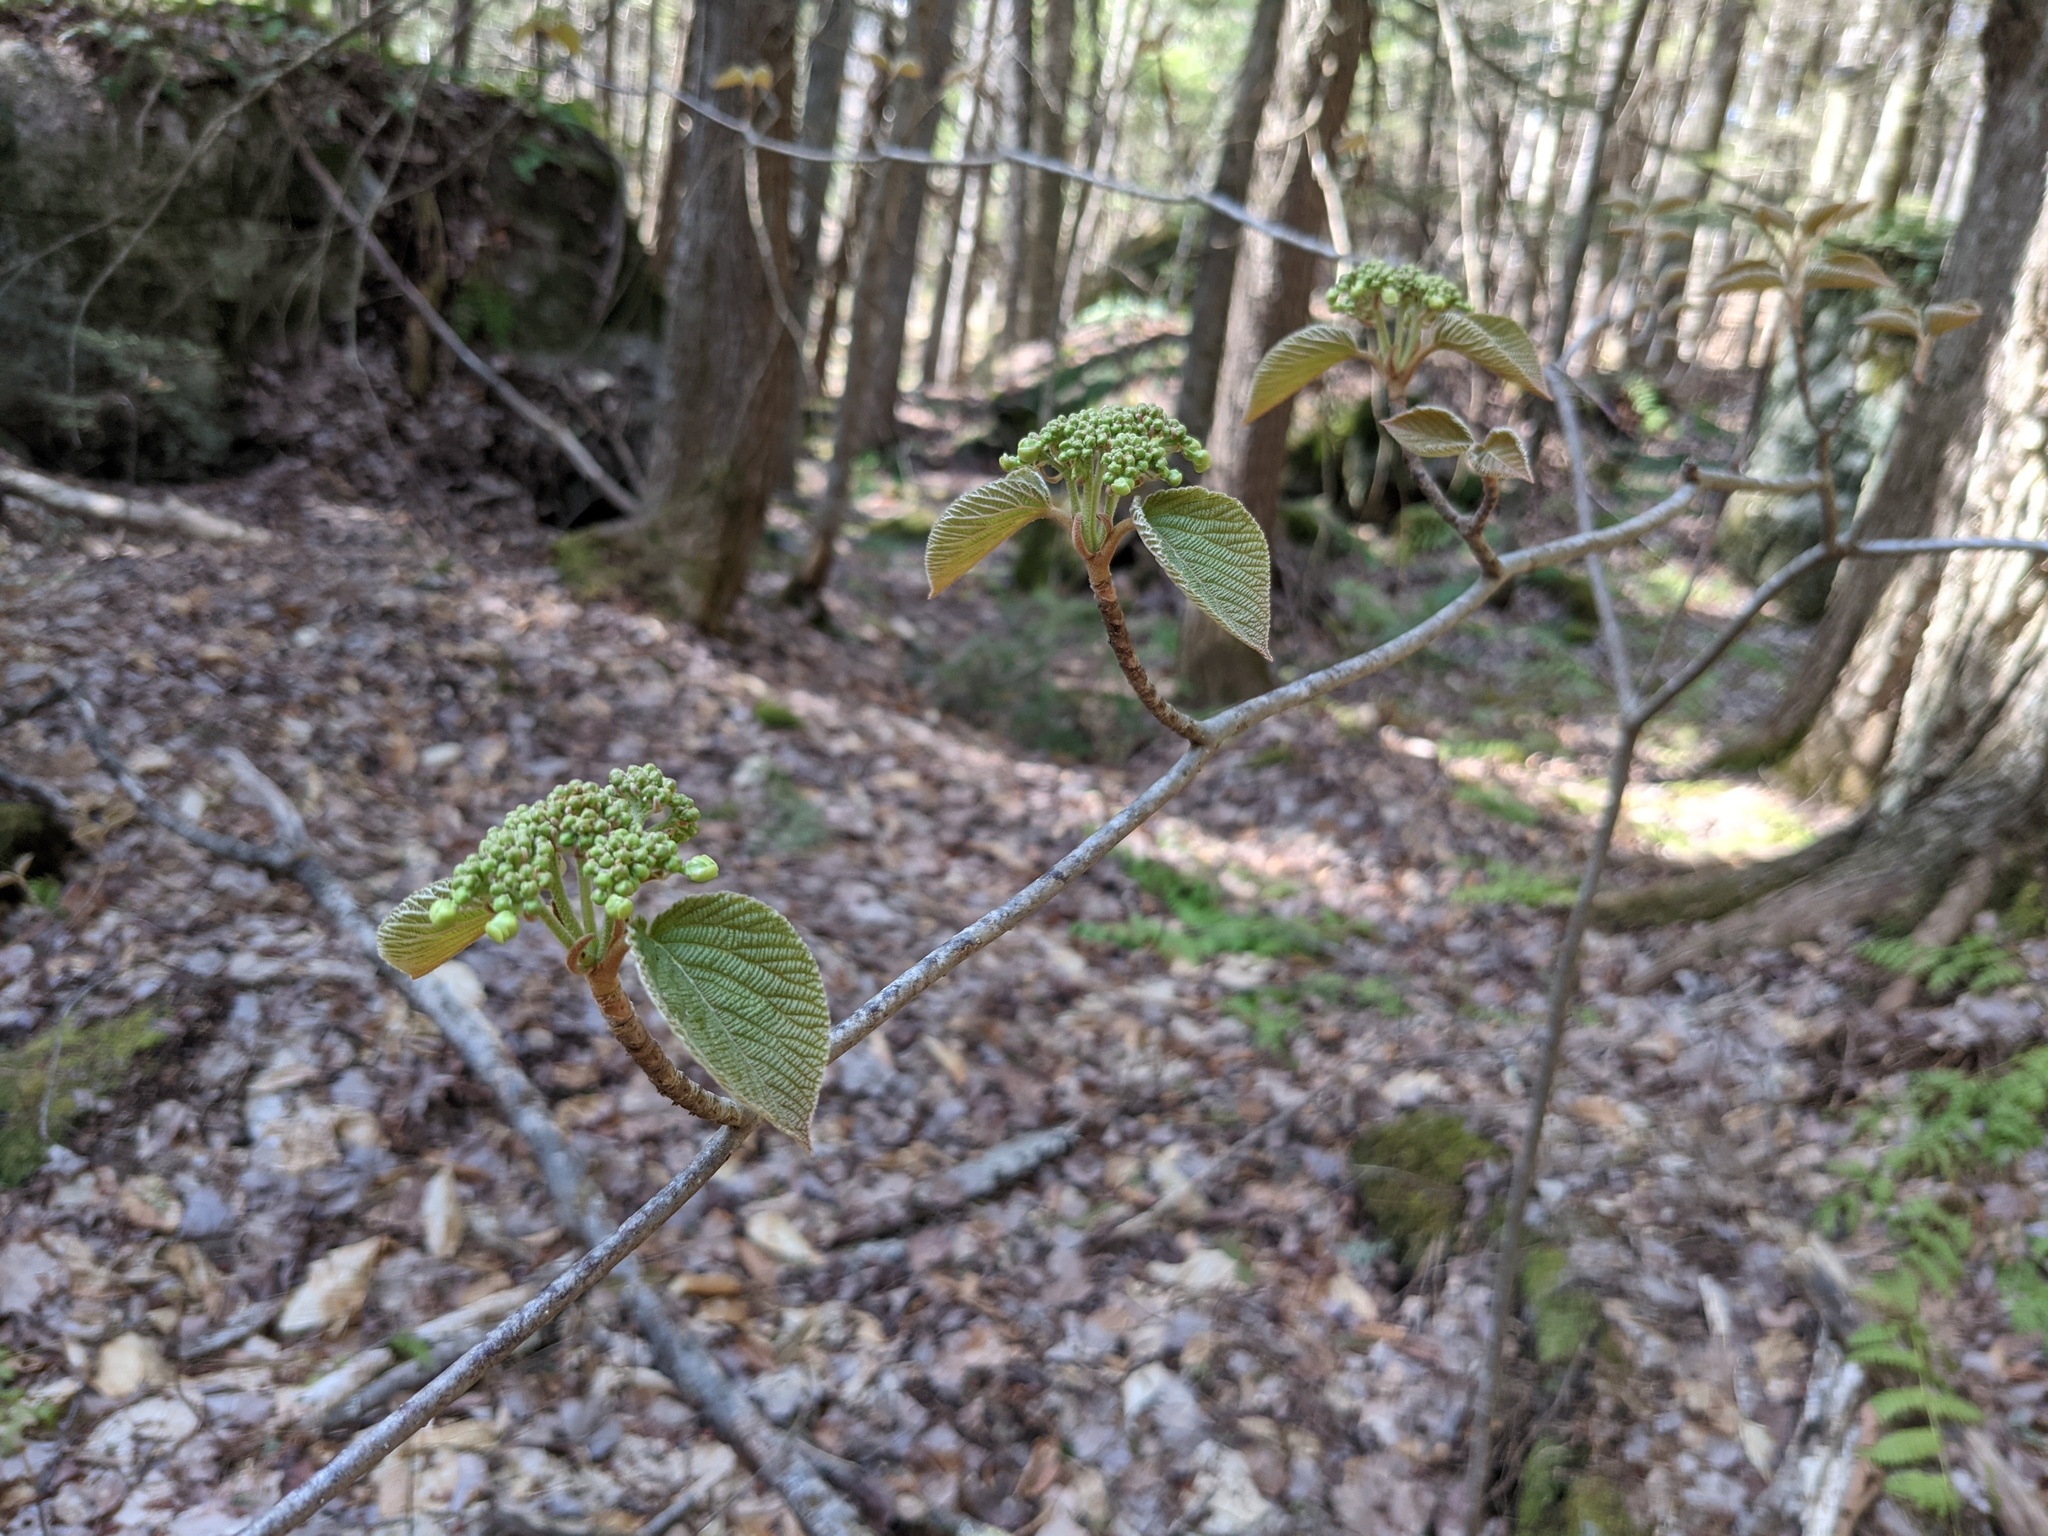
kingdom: Plantae
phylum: Tracheophyta
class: Magnoliopsida
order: Dipsacales
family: Viburnaceae
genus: Viburnum
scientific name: Viburnum lantanoides
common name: Hobblebush
